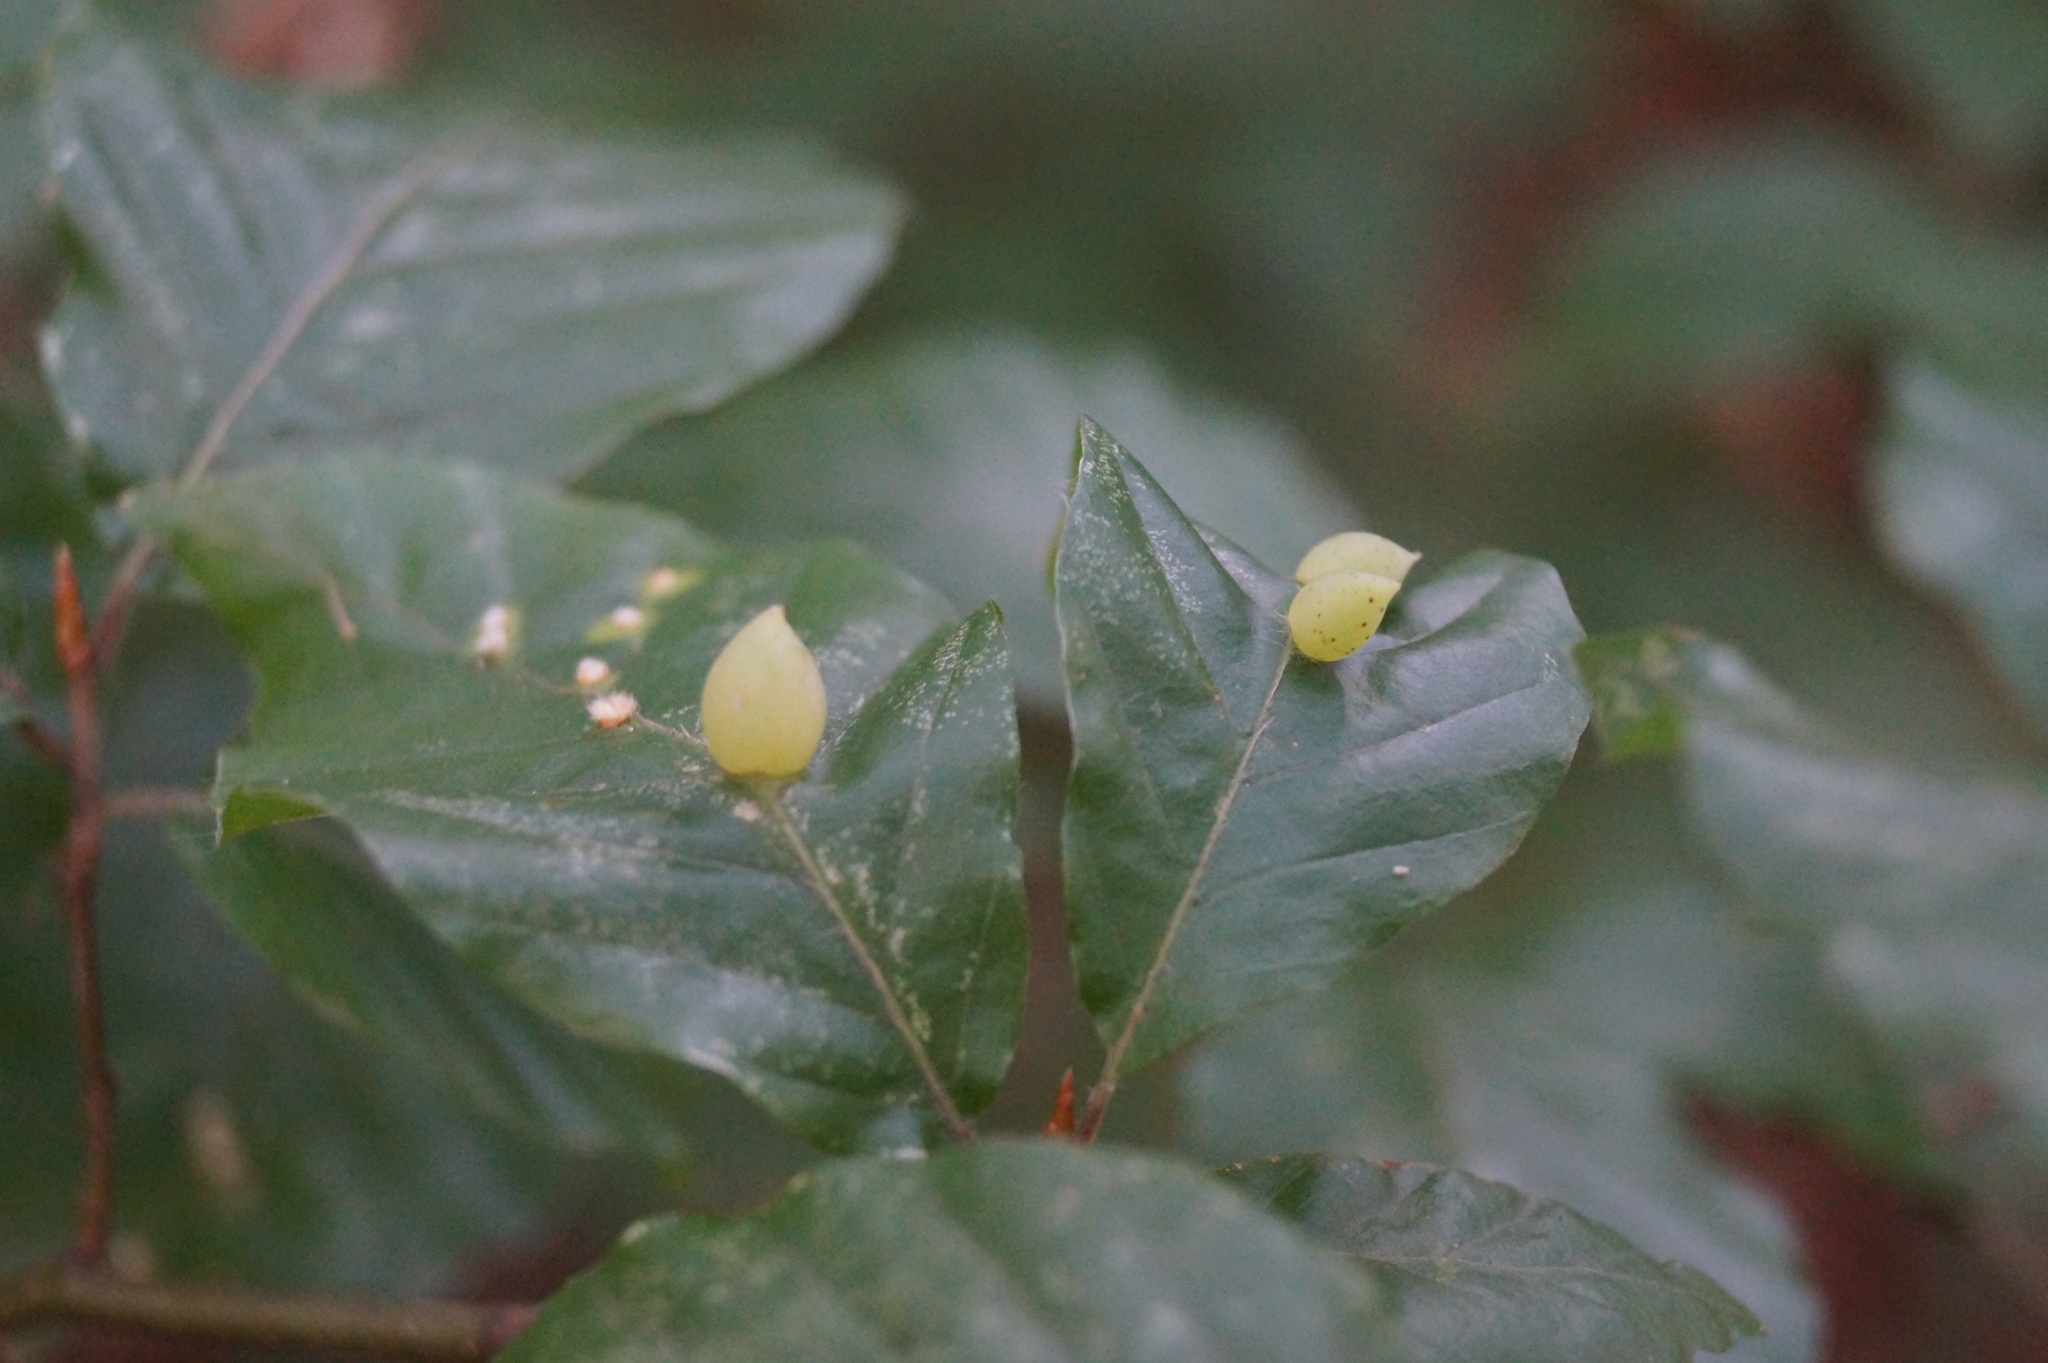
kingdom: Animalia
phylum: Arthropoda
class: Insecta
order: Diptera
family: Cecidomyiidae
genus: Mikiola
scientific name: Mikiola fagi
